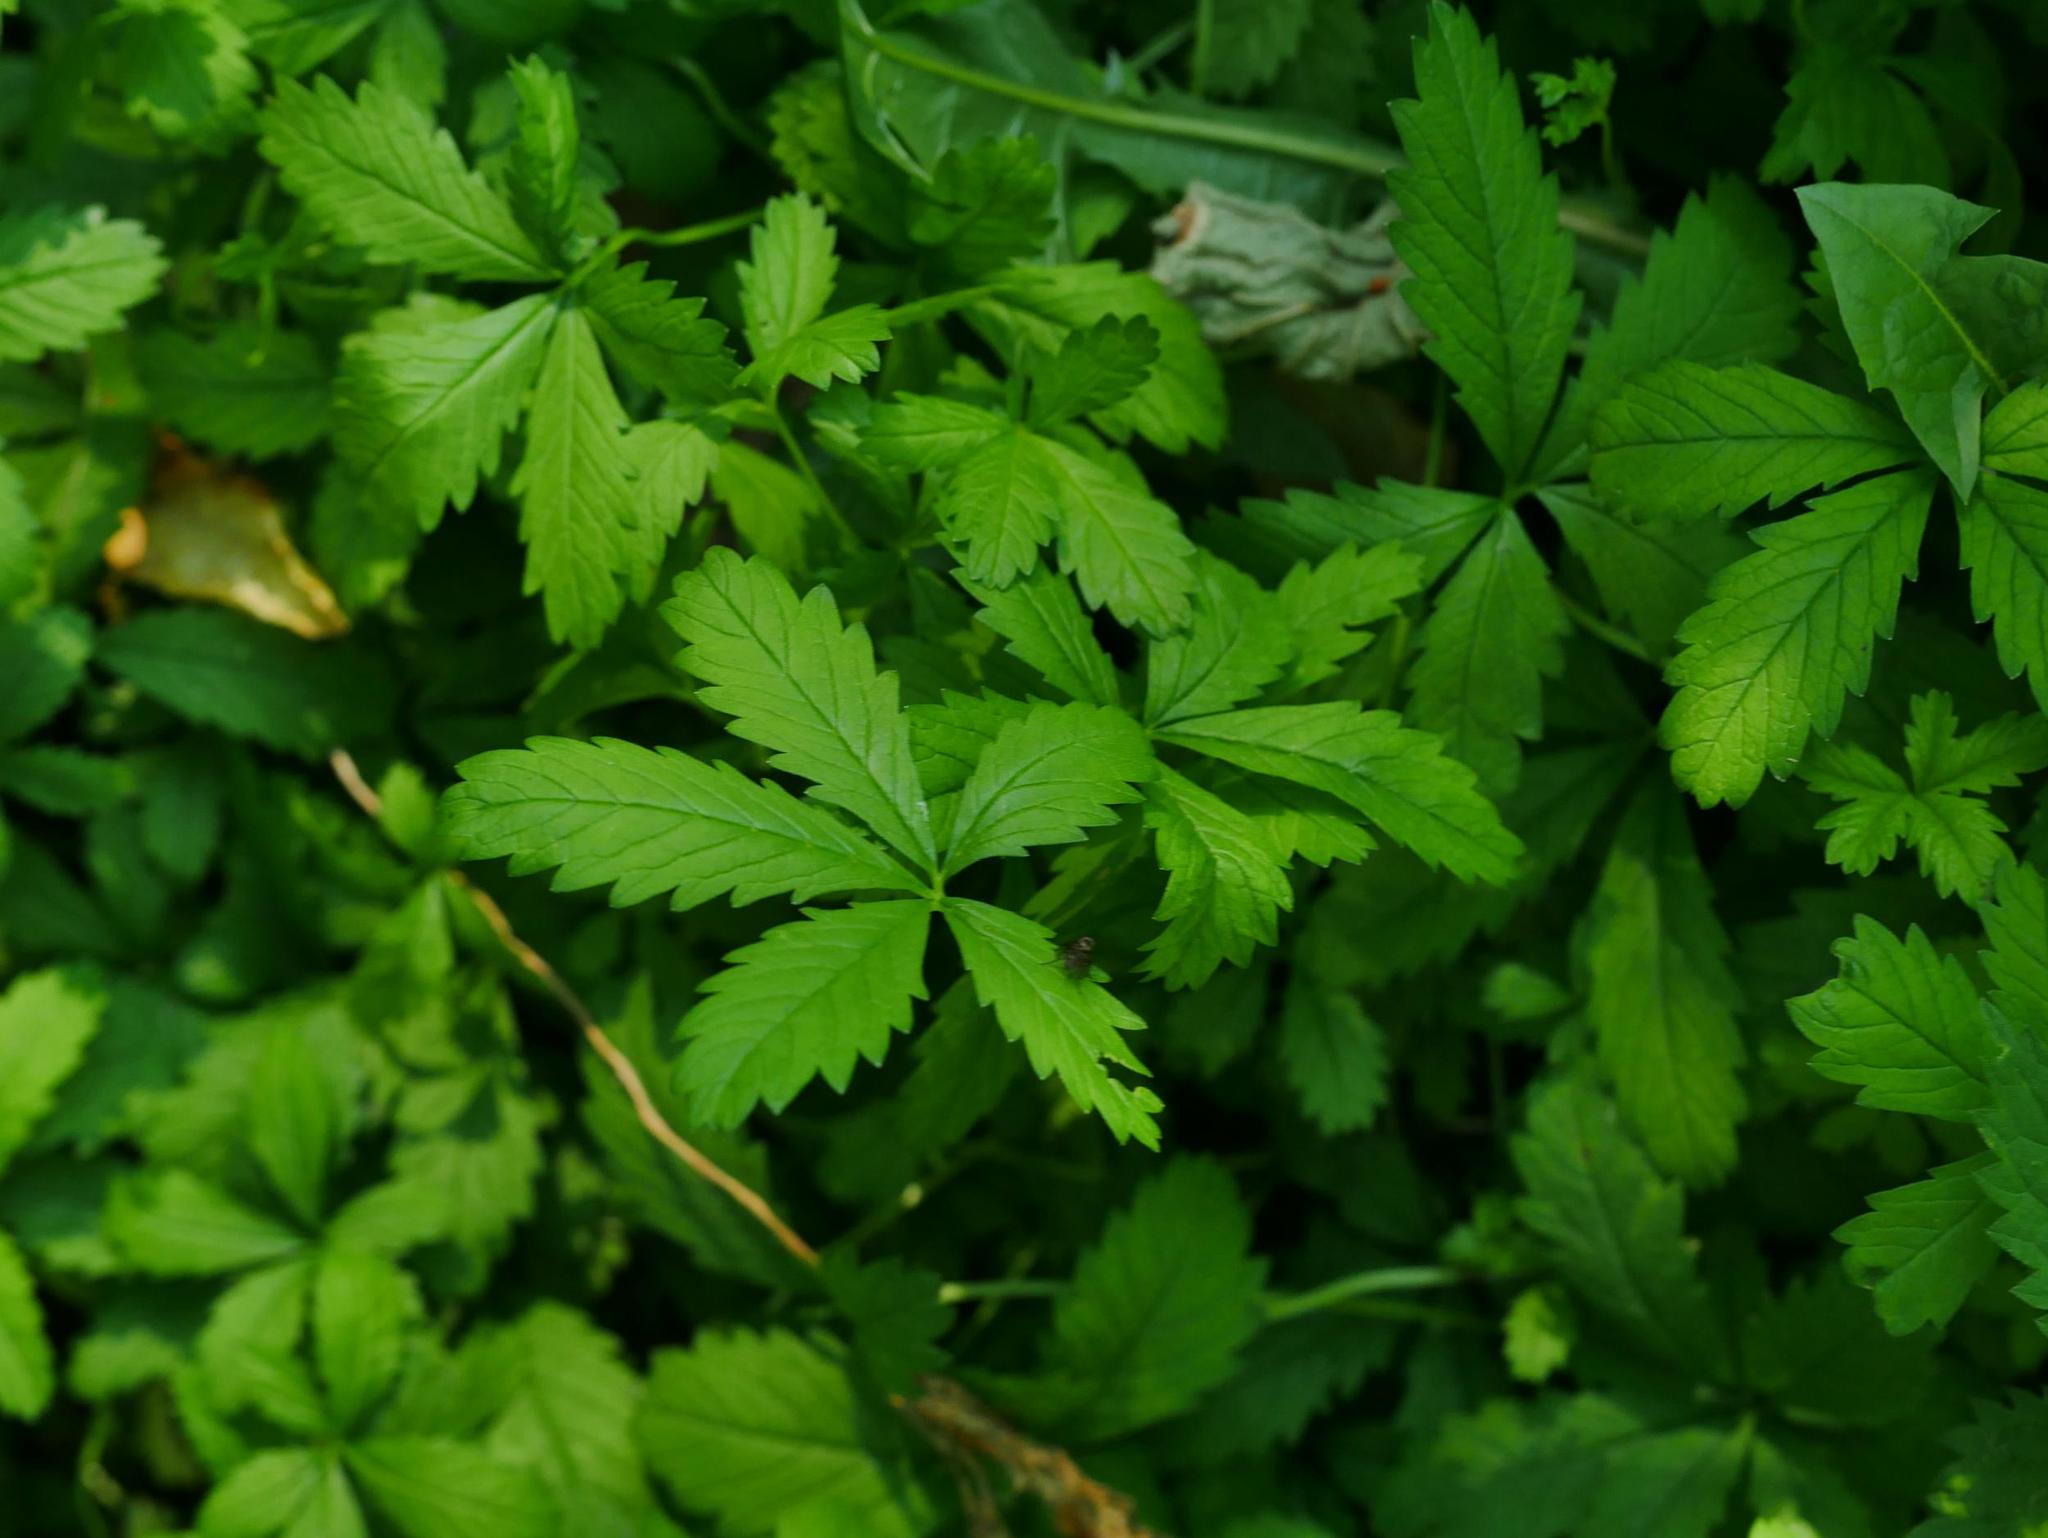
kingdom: Plantae
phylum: Tracheophyta
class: Magnoliopsida
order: Rosales
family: Rosaceae
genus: Potentilla
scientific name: Potentilla reptans
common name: Creeping cinquefoil
